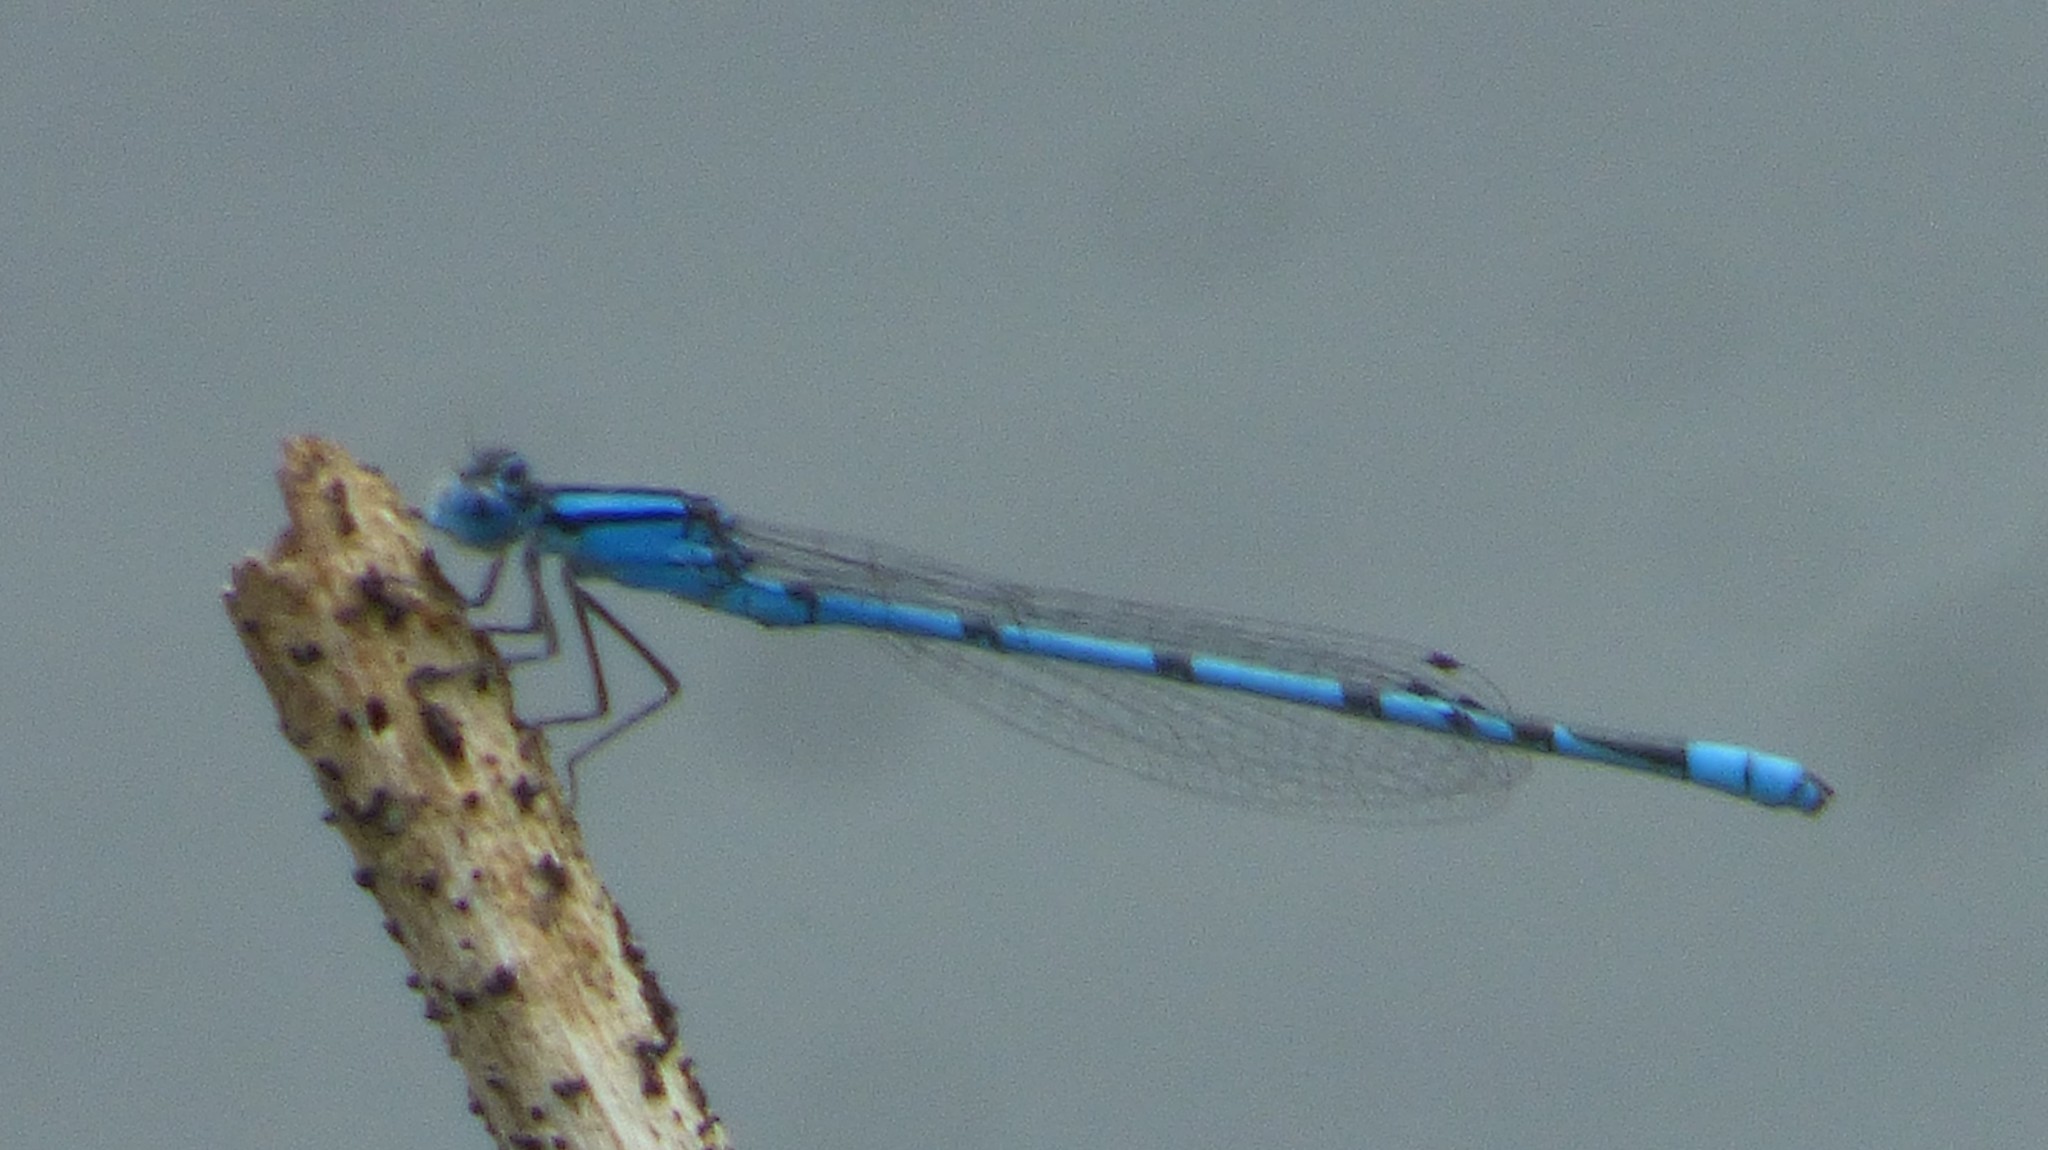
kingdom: Animalia
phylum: Arthropoda
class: Insecta
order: Odonata
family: Coenagrionidae
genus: Enallagma
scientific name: Enallagma doubledayi
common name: Atlantic bluet
